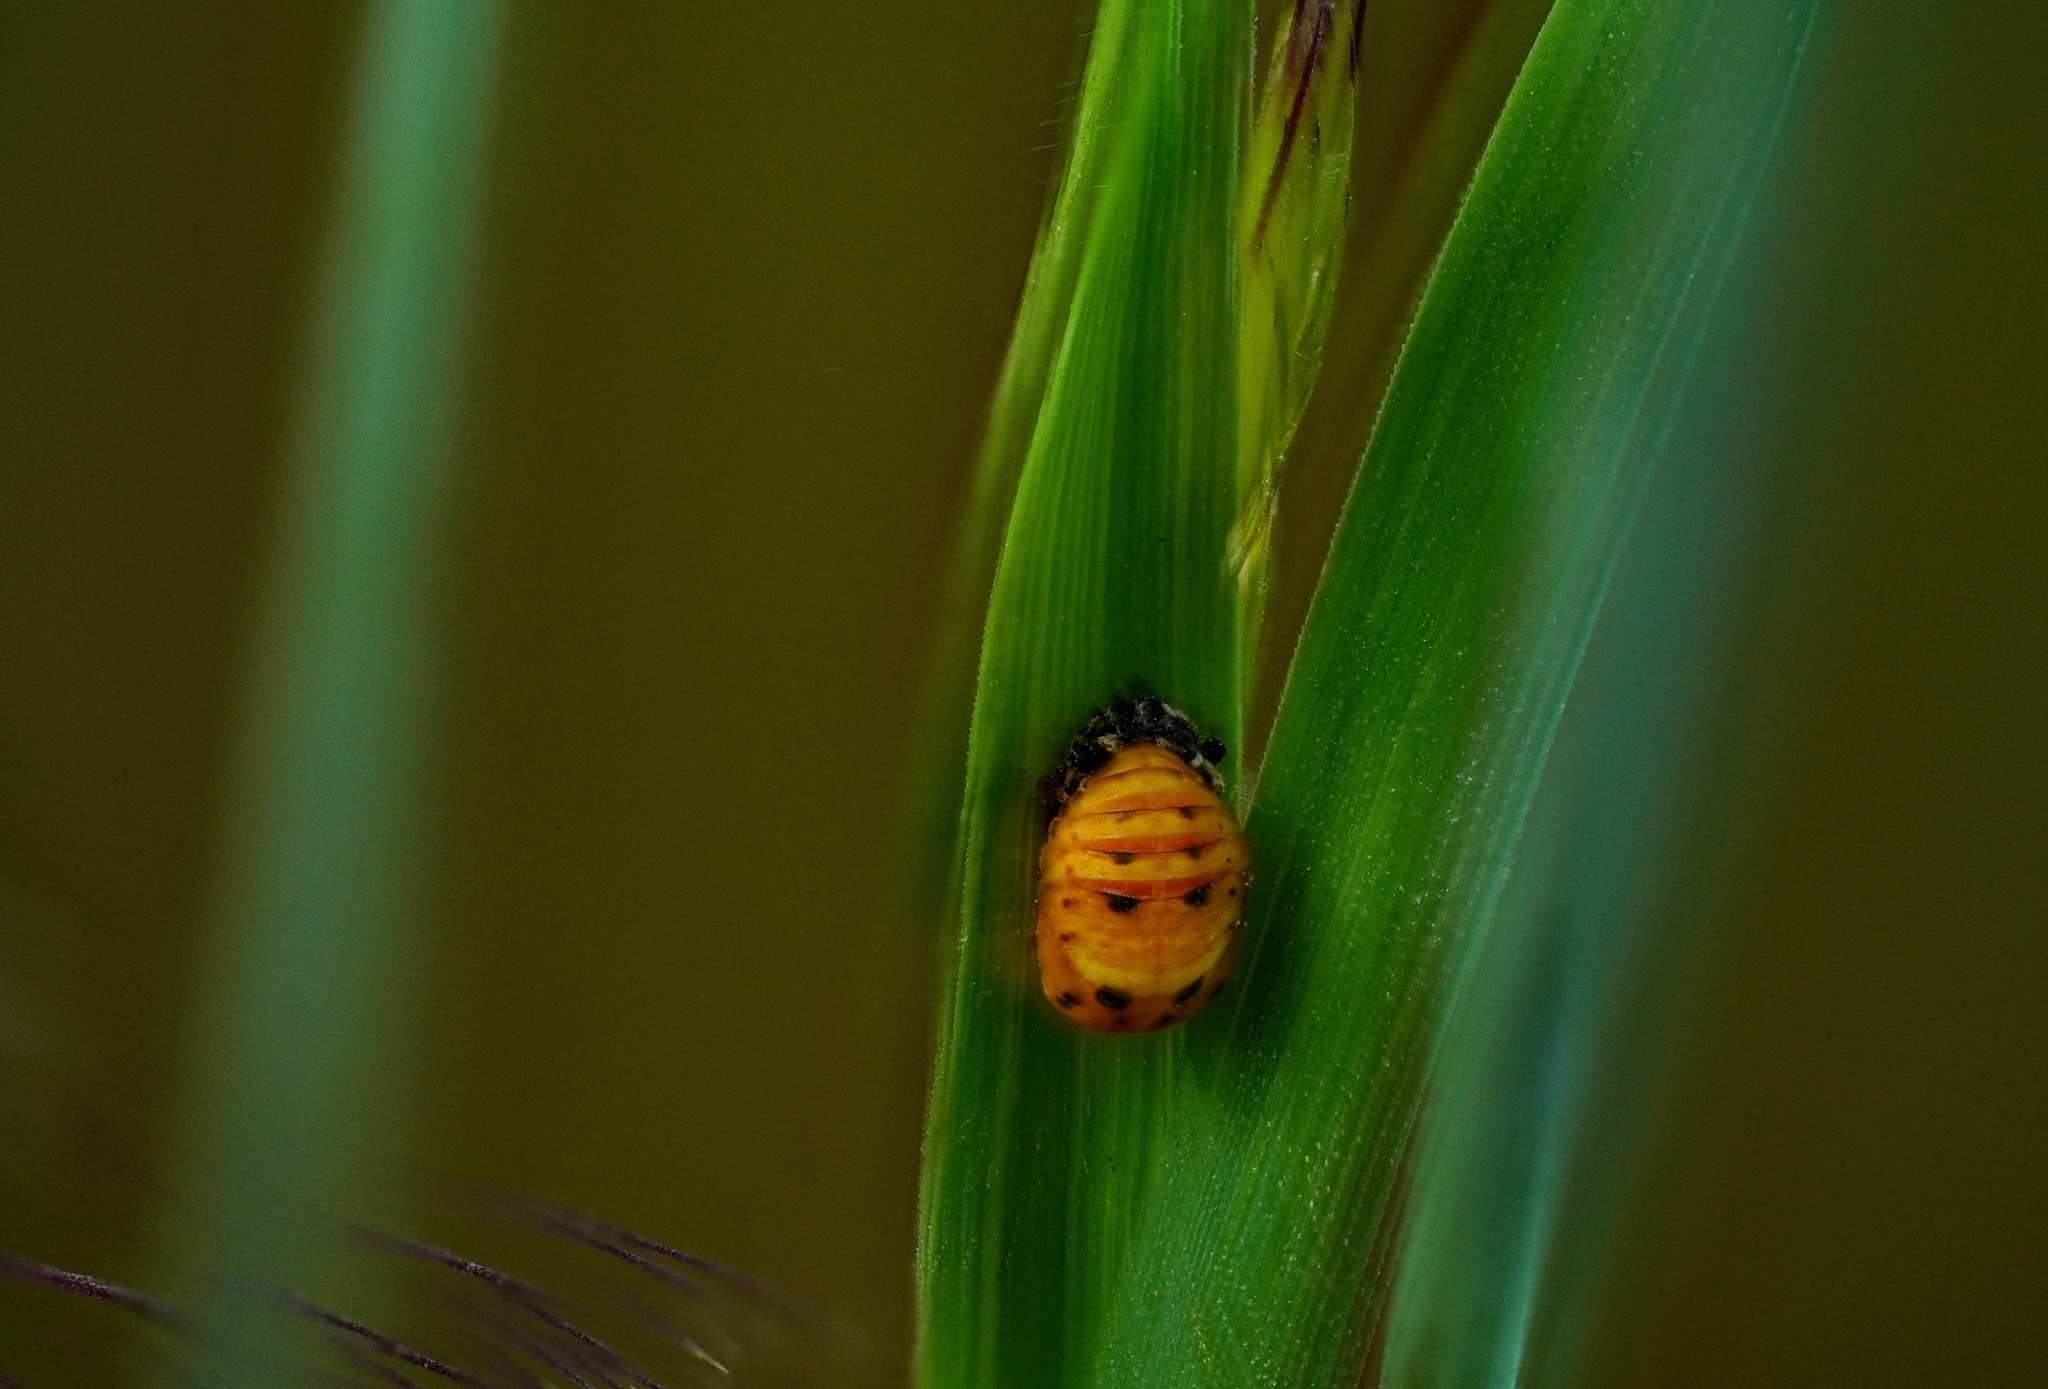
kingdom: Animalia
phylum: Arthropoda
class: Insecta
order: Coleoptera
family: Coccinellidae
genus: Hippodamia
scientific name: Hippodamia convergens
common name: Convergent lady beetle
